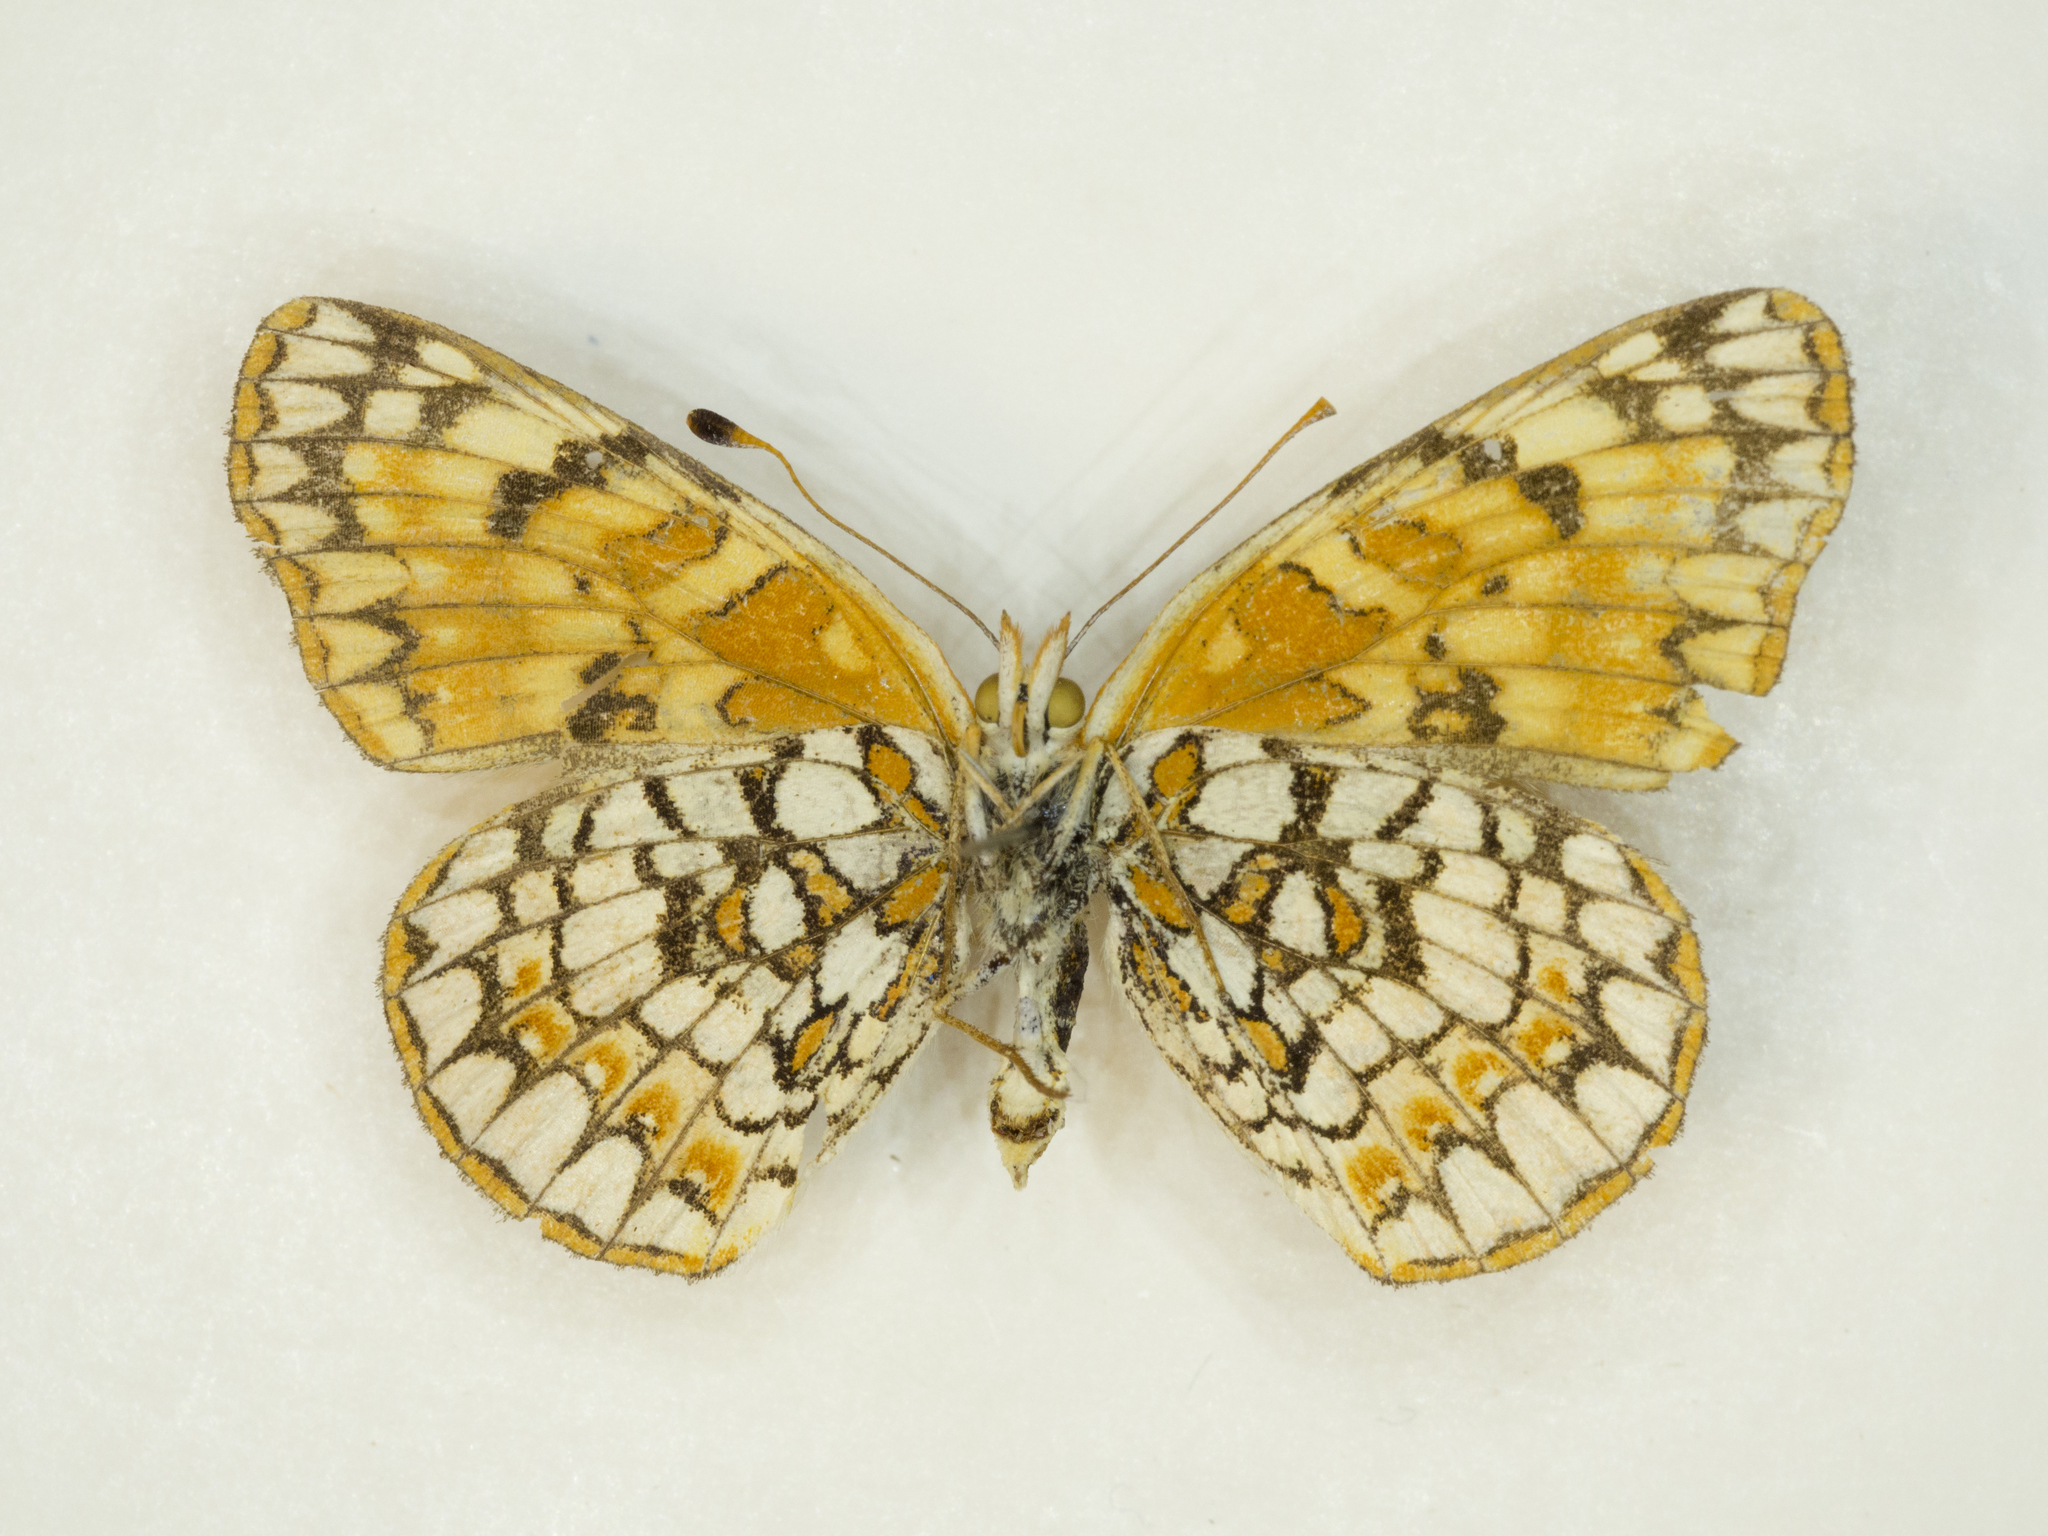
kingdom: Animalia
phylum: Arthropoda
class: Insecta
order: Lepidoptera
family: Nymphalidae
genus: Chlosyne
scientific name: Chlosyne acastus
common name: Sagebrush checkerspot
